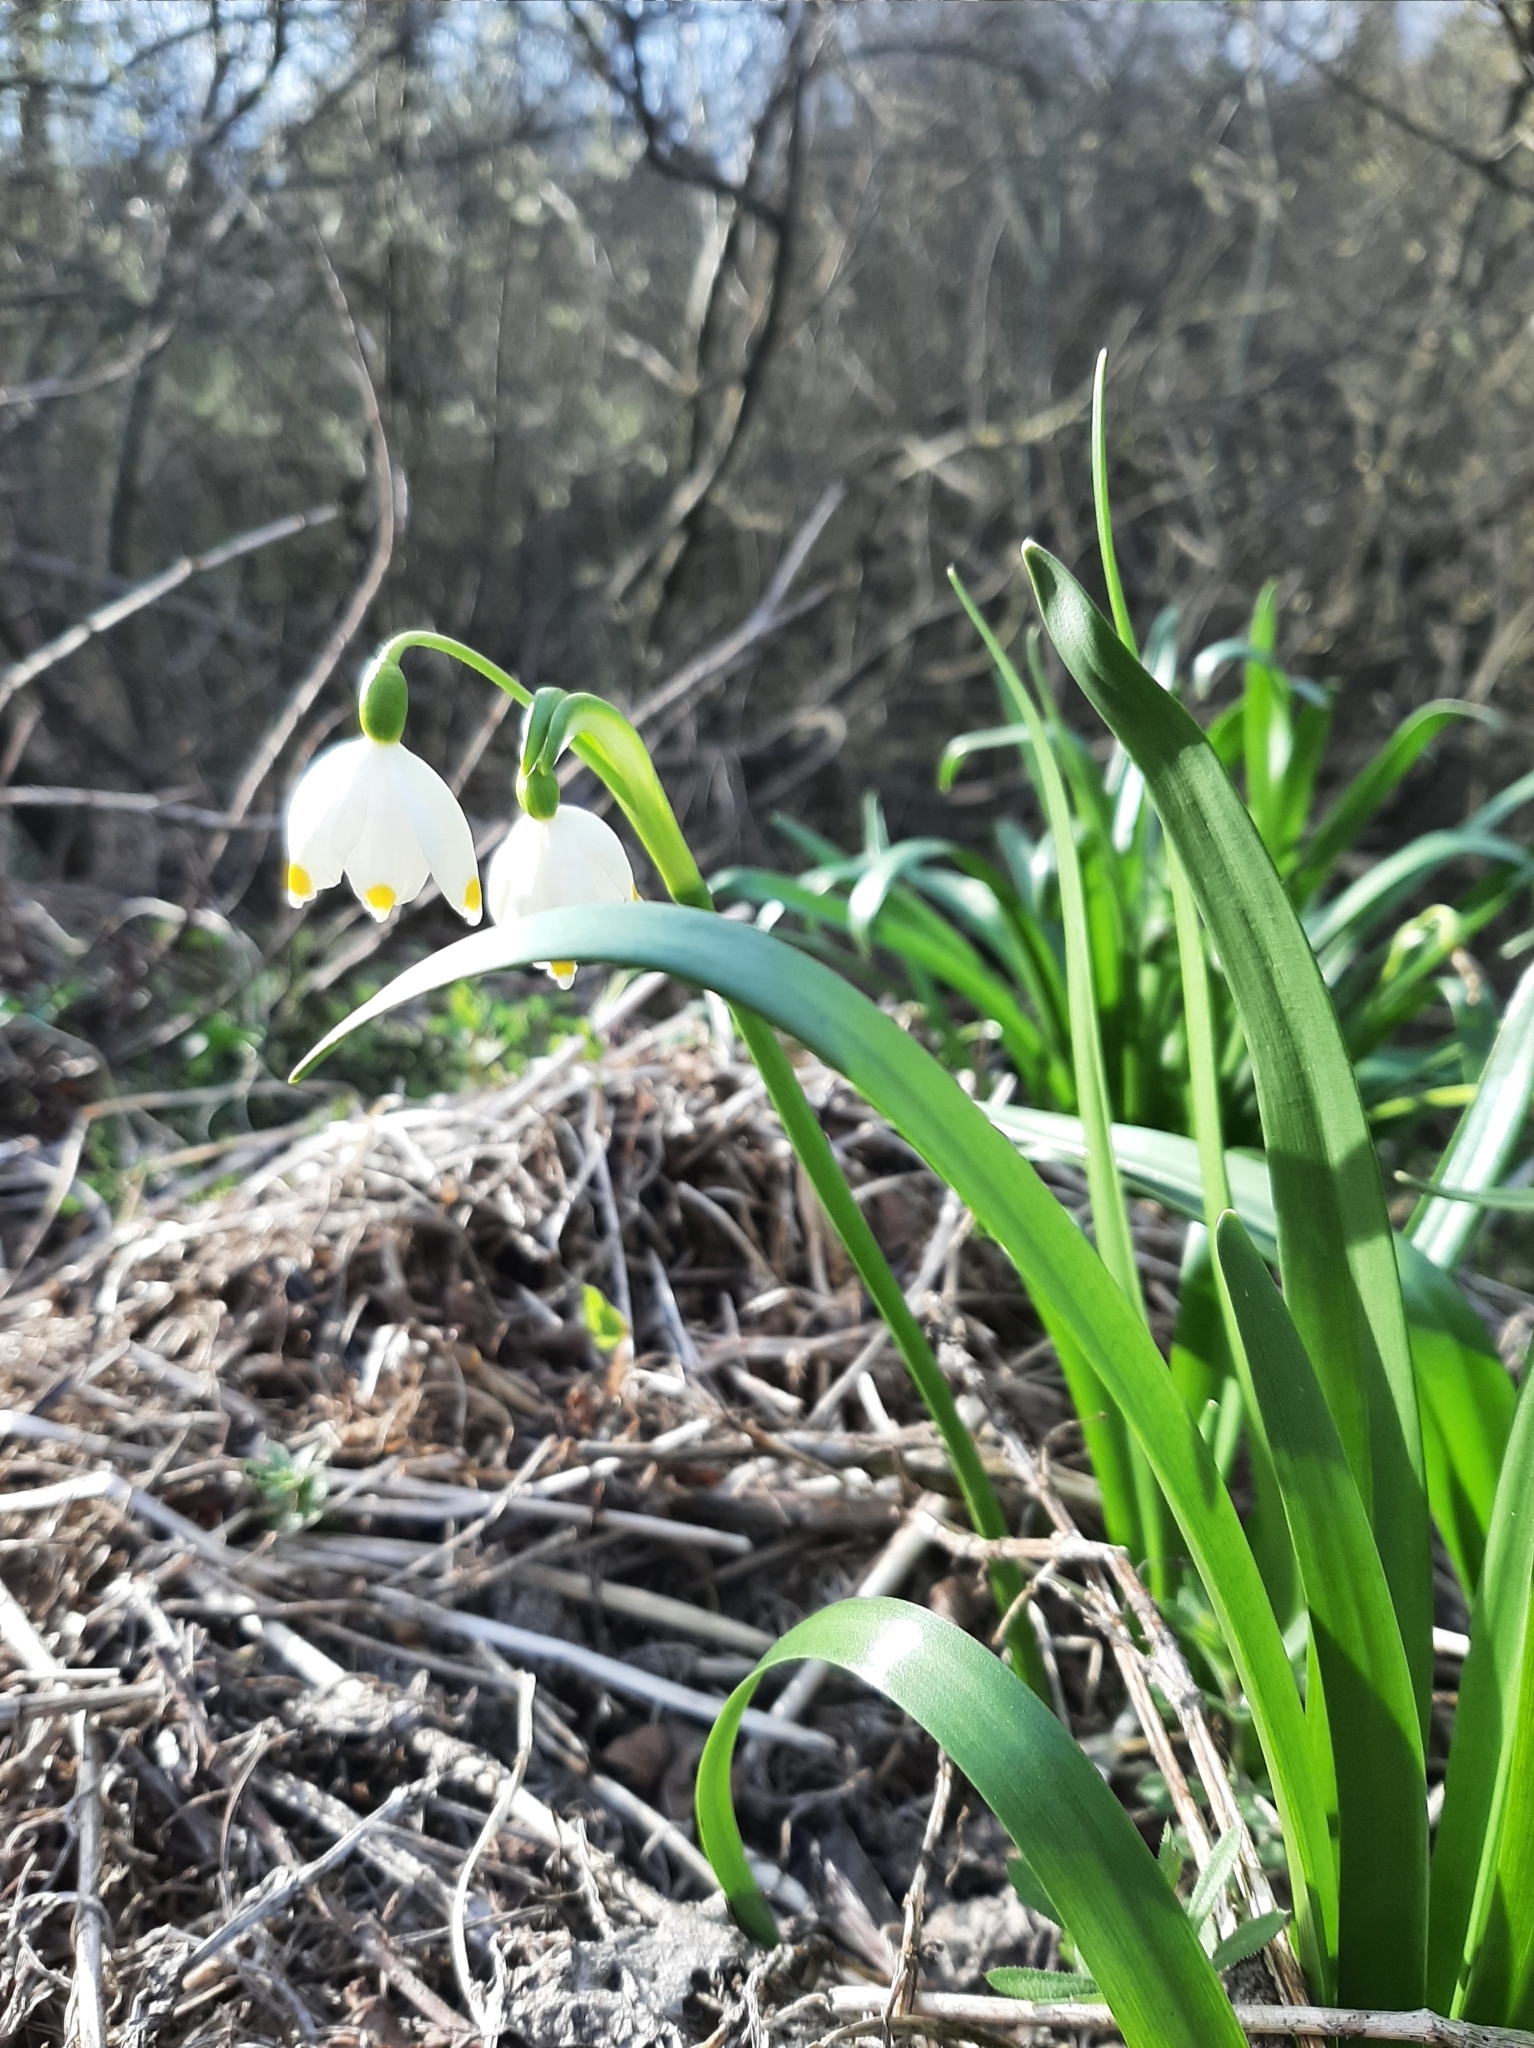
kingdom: Plantae
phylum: Tracheophyta
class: Liliopsida
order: Asparagales
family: Amaryllidaceae
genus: Leucojum
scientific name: Leucojum vernum
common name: Spring snowflake
